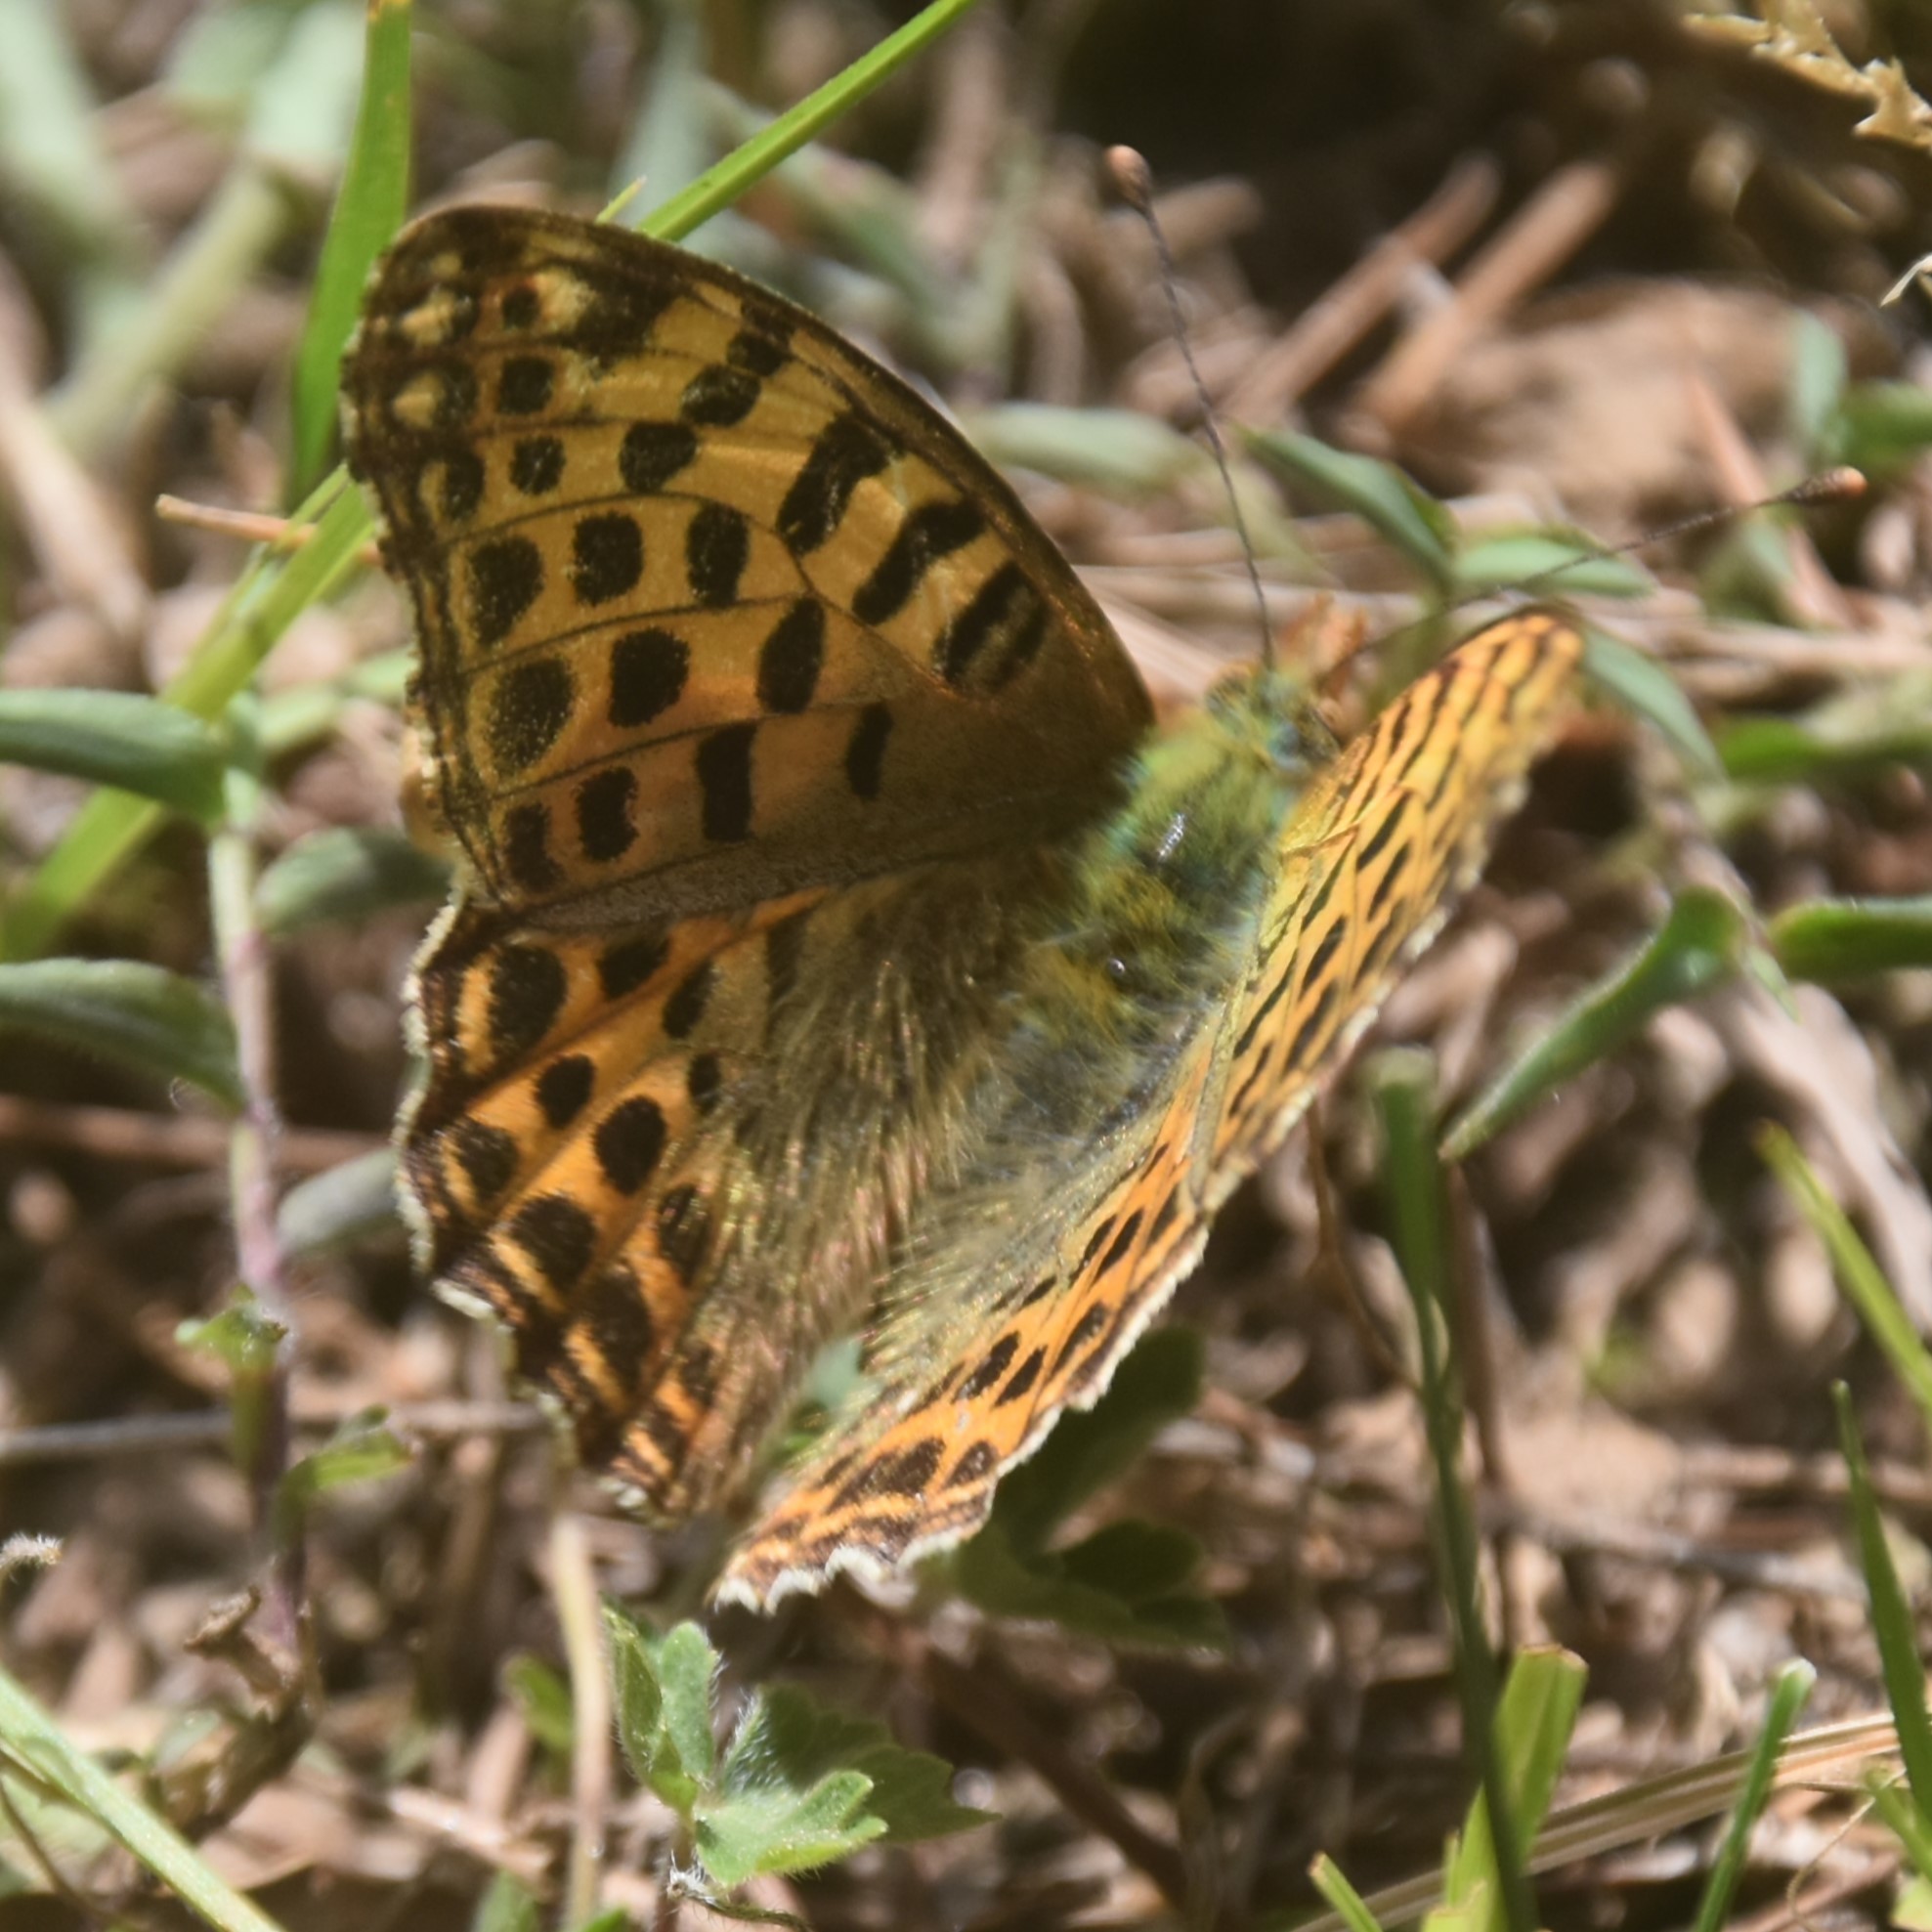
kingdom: Animalia
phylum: Arthropoda
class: Insecta
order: Lepidoptera
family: Nymphalidae
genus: Issoria
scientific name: Issoria
